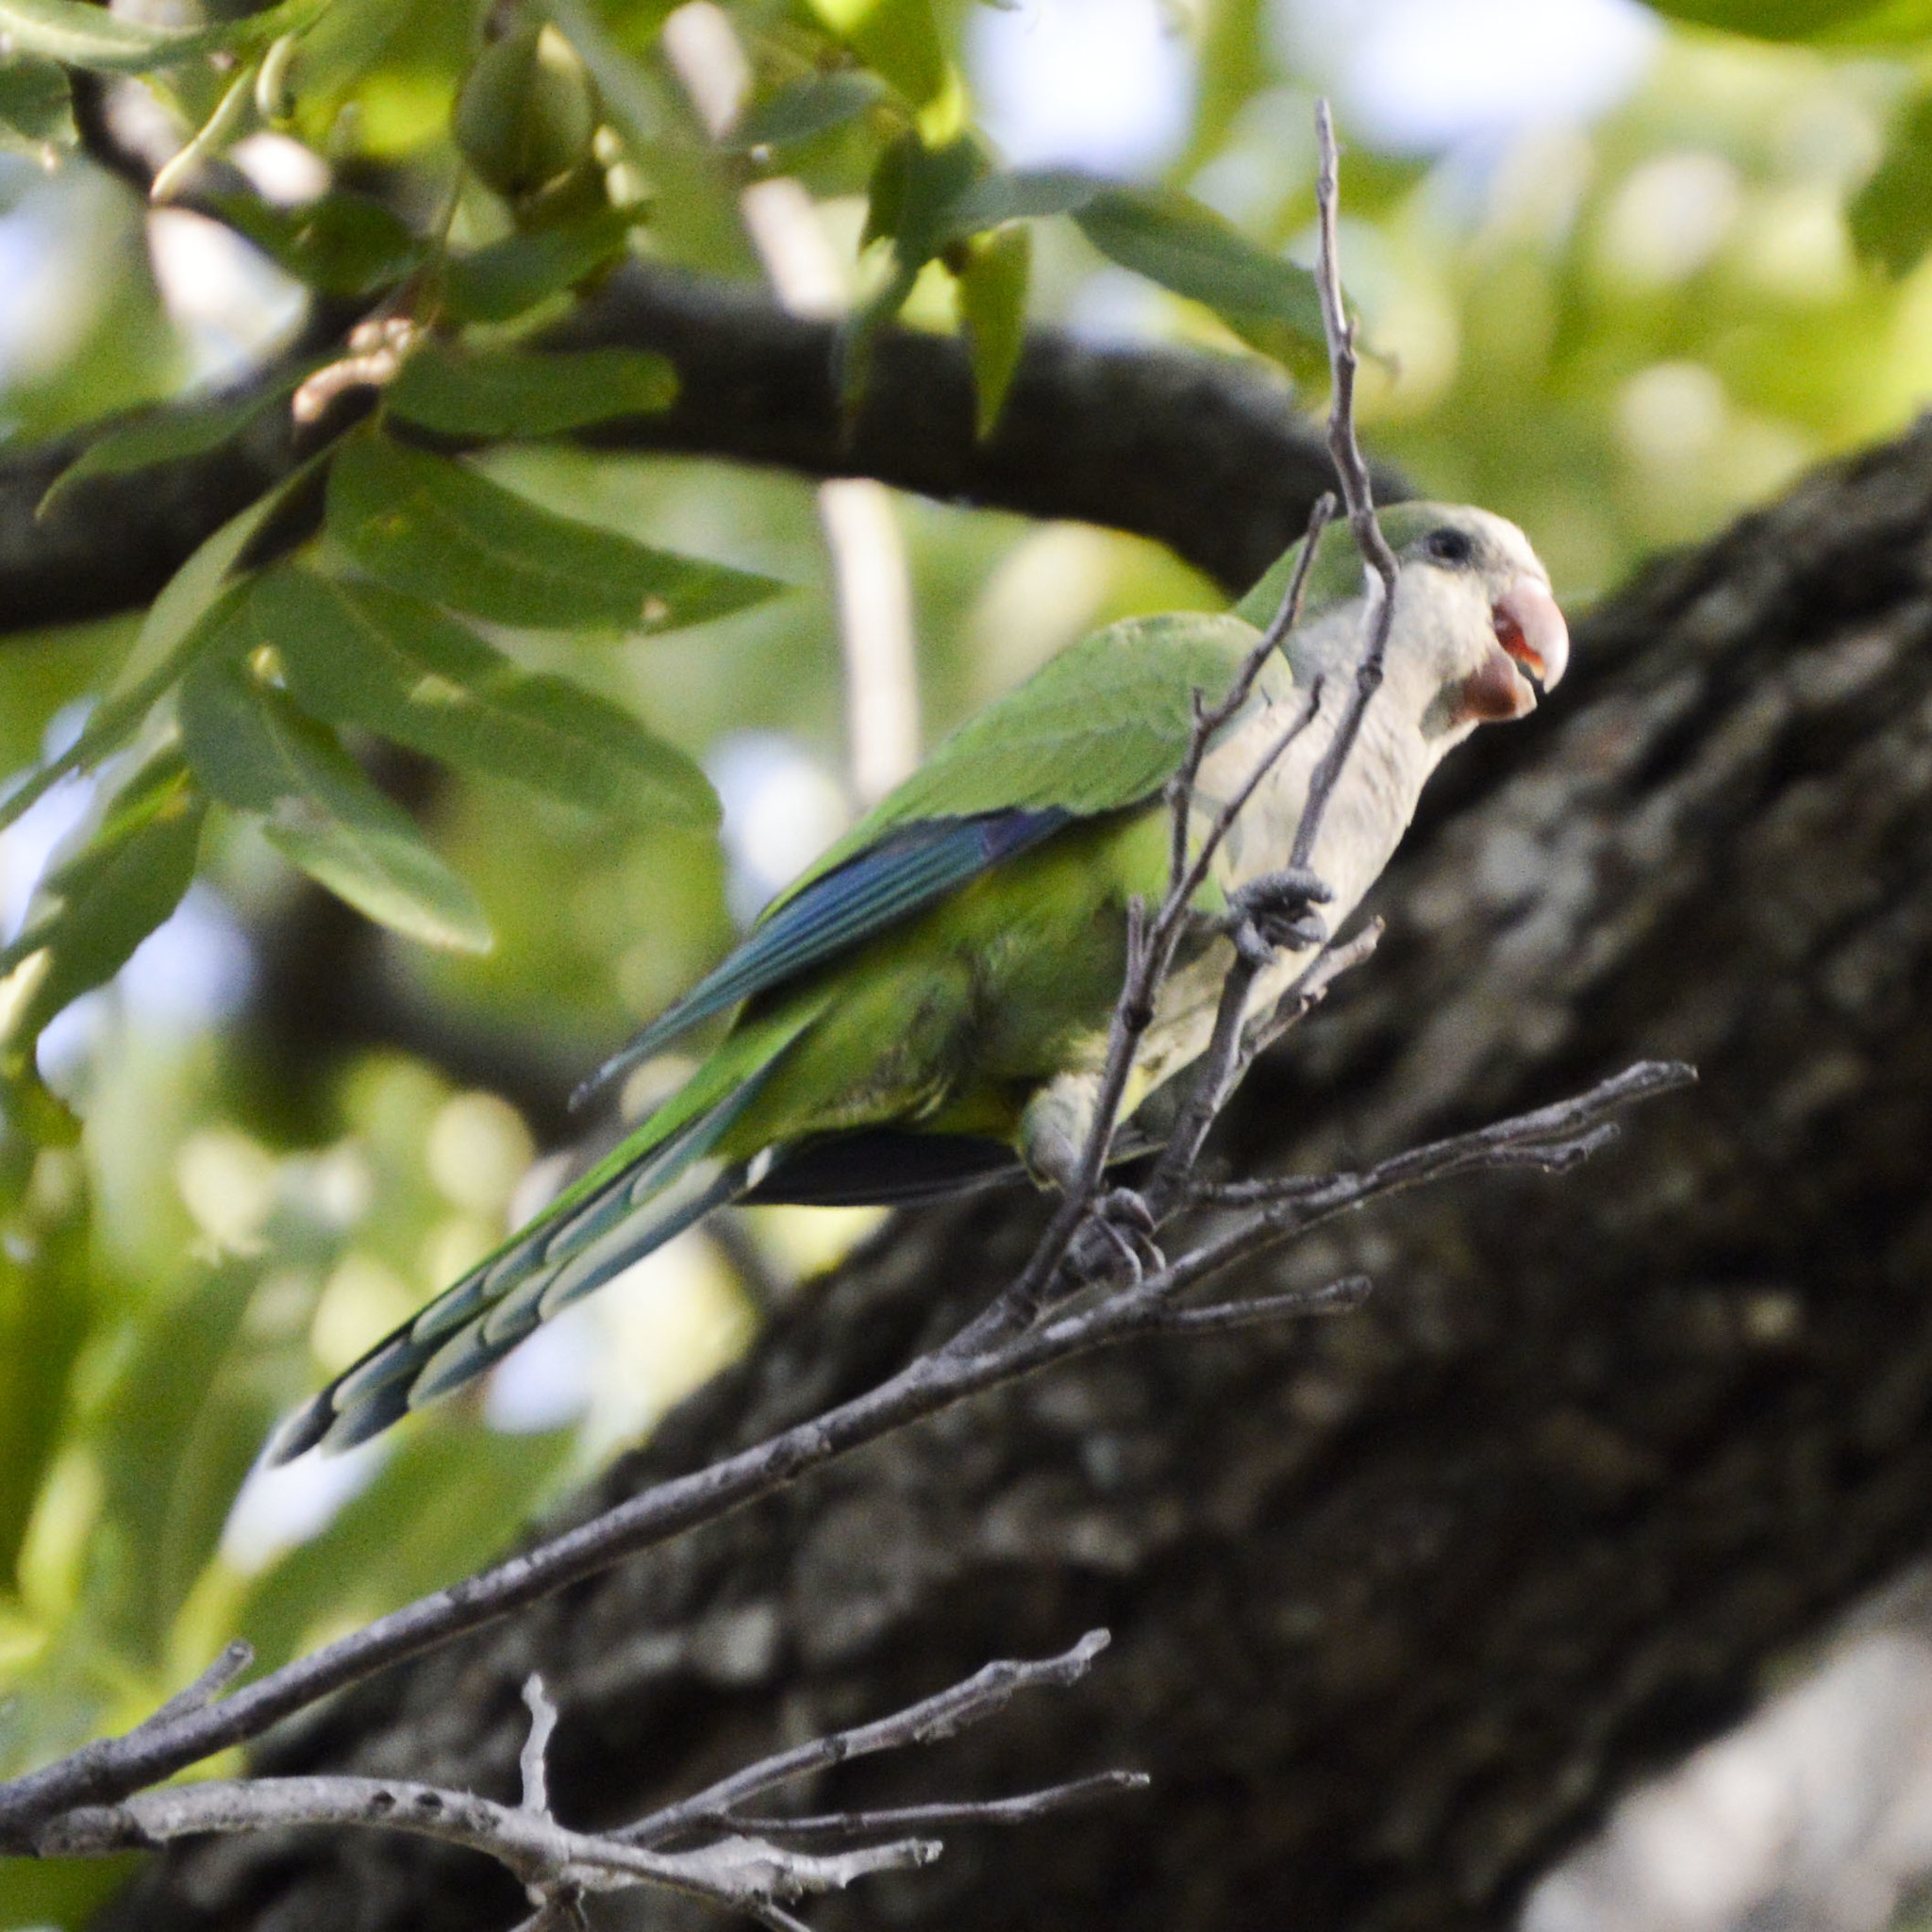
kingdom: Animalia
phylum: Chordata
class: Aves
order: Psittaciformes
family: Psittacidae
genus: Myiopsitta
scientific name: Myiopsitta monachus
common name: Monk parakeet
